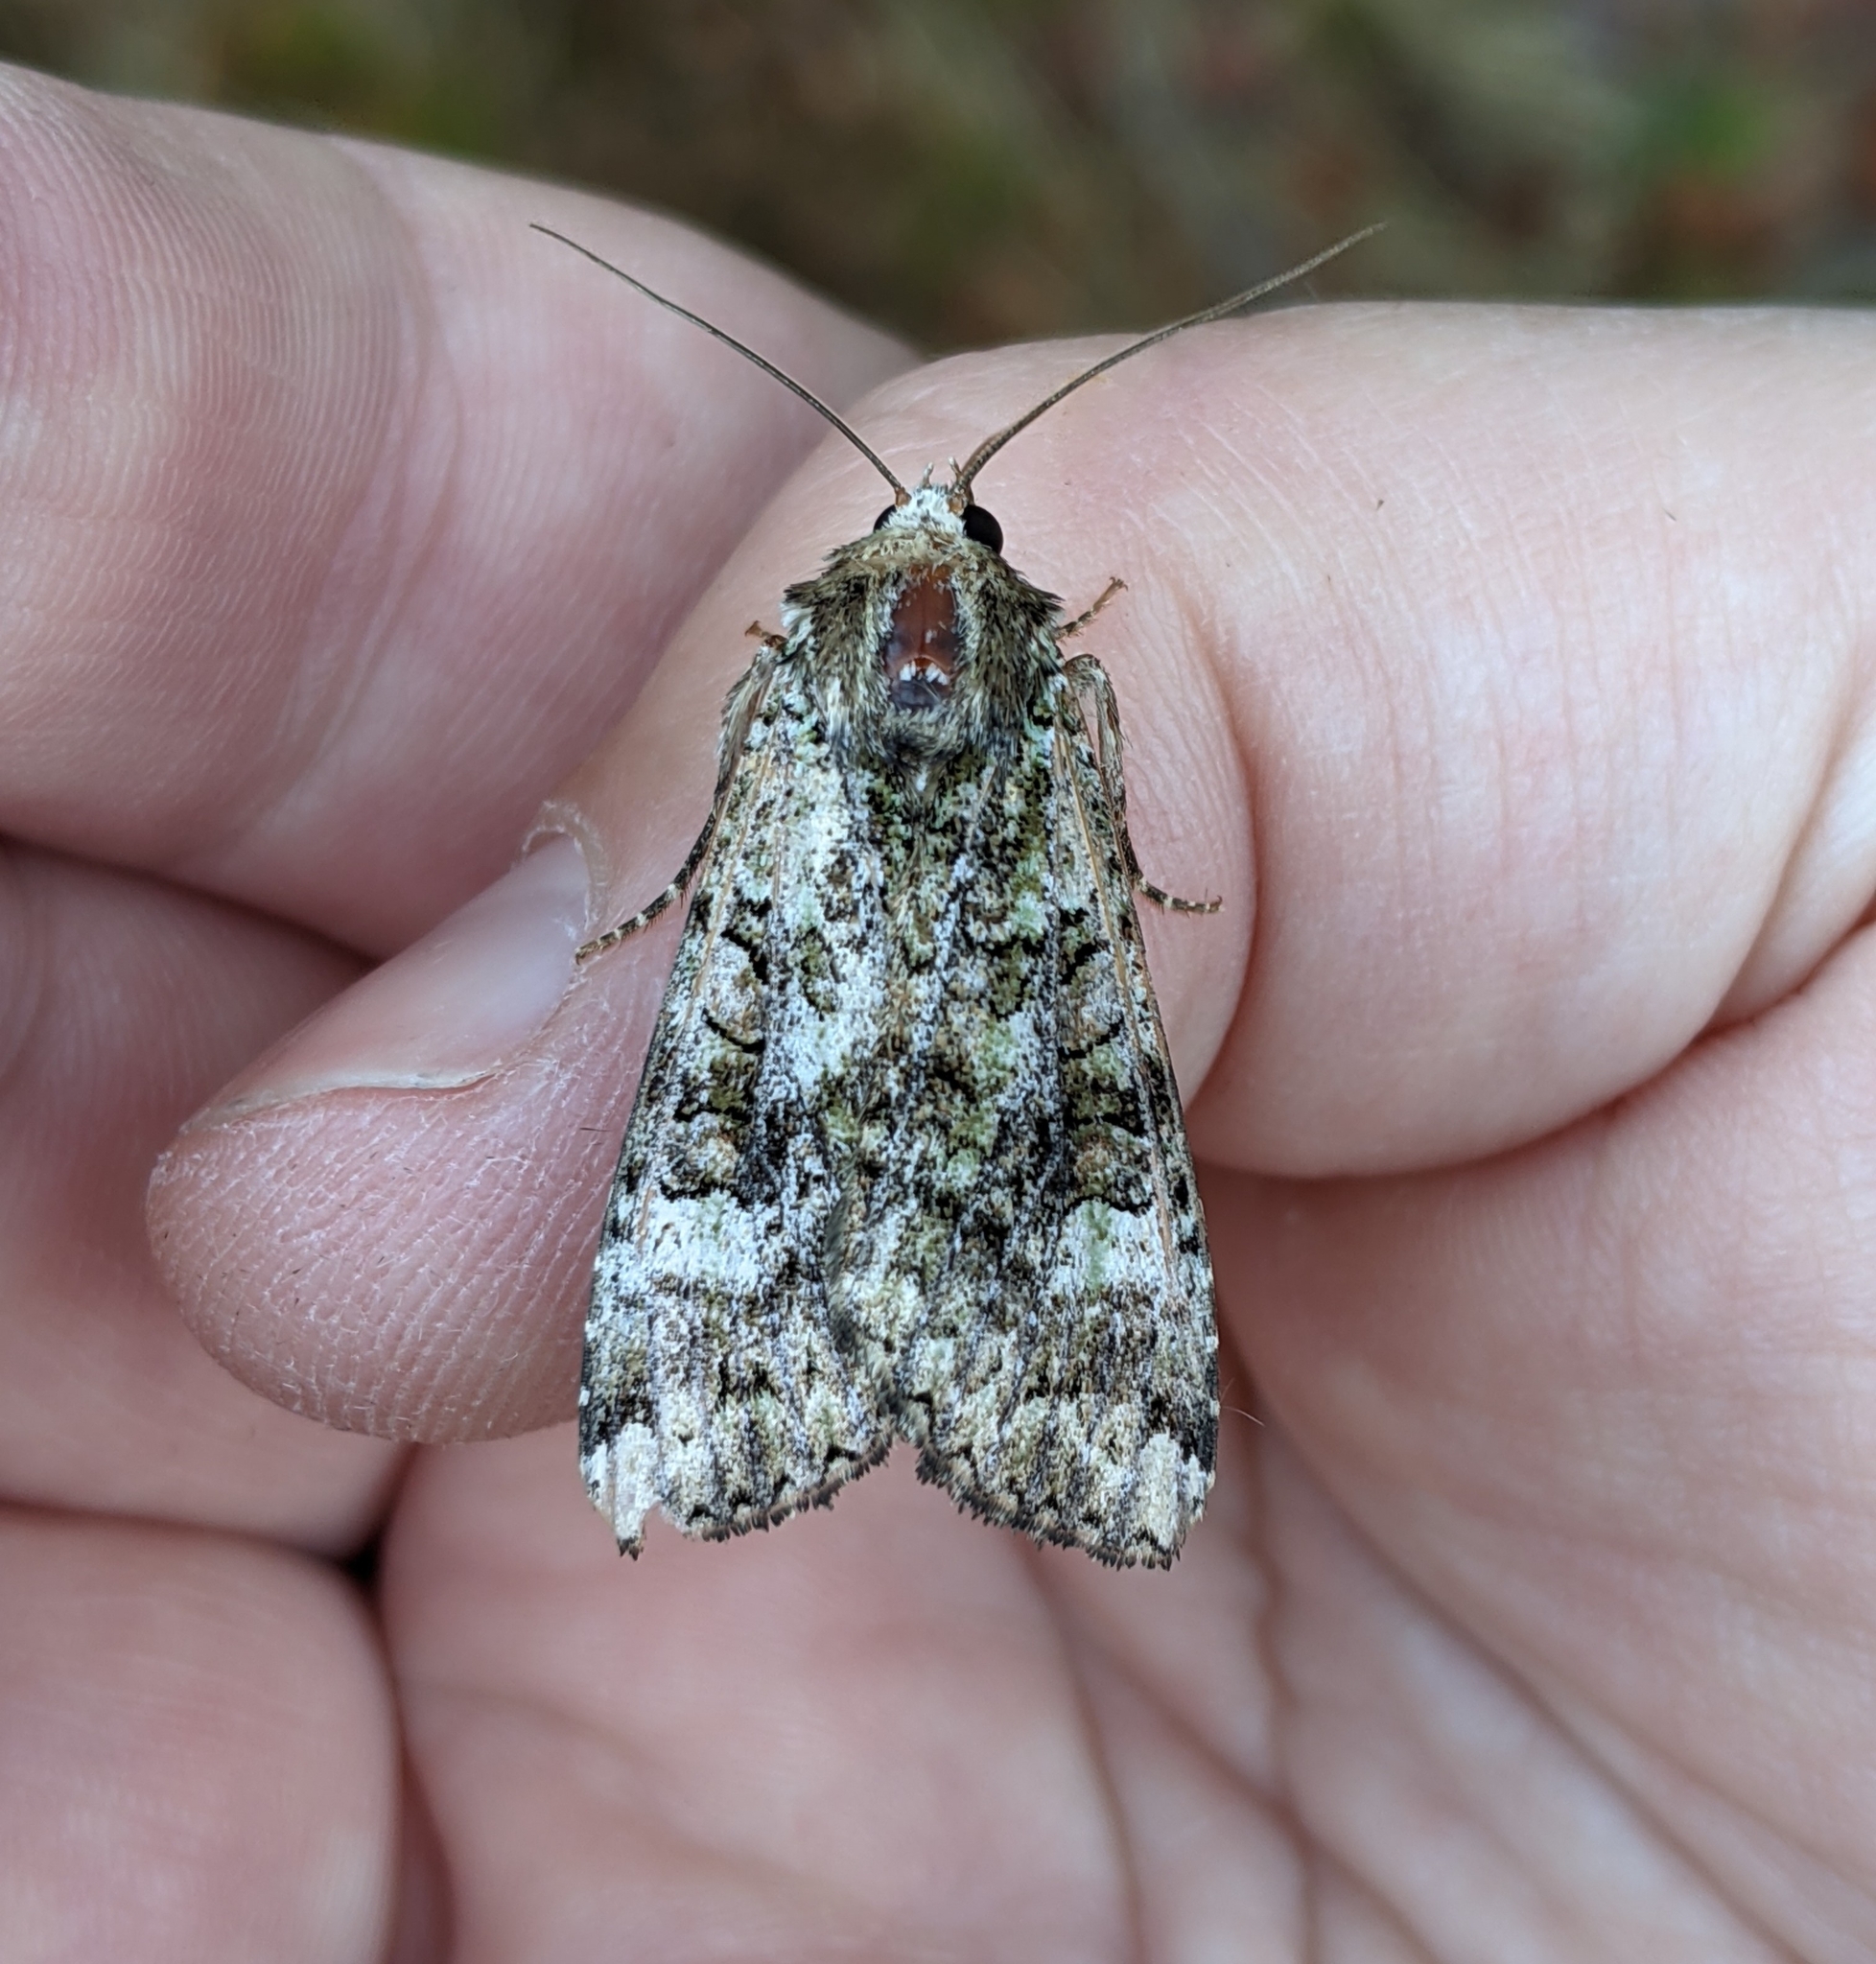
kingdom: Animalia
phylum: Arthropoda
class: Insecta
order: Lepidoptera
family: Noctuidae
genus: Anaplectoides
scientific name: Anaplectoides prasina
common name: Green arches
